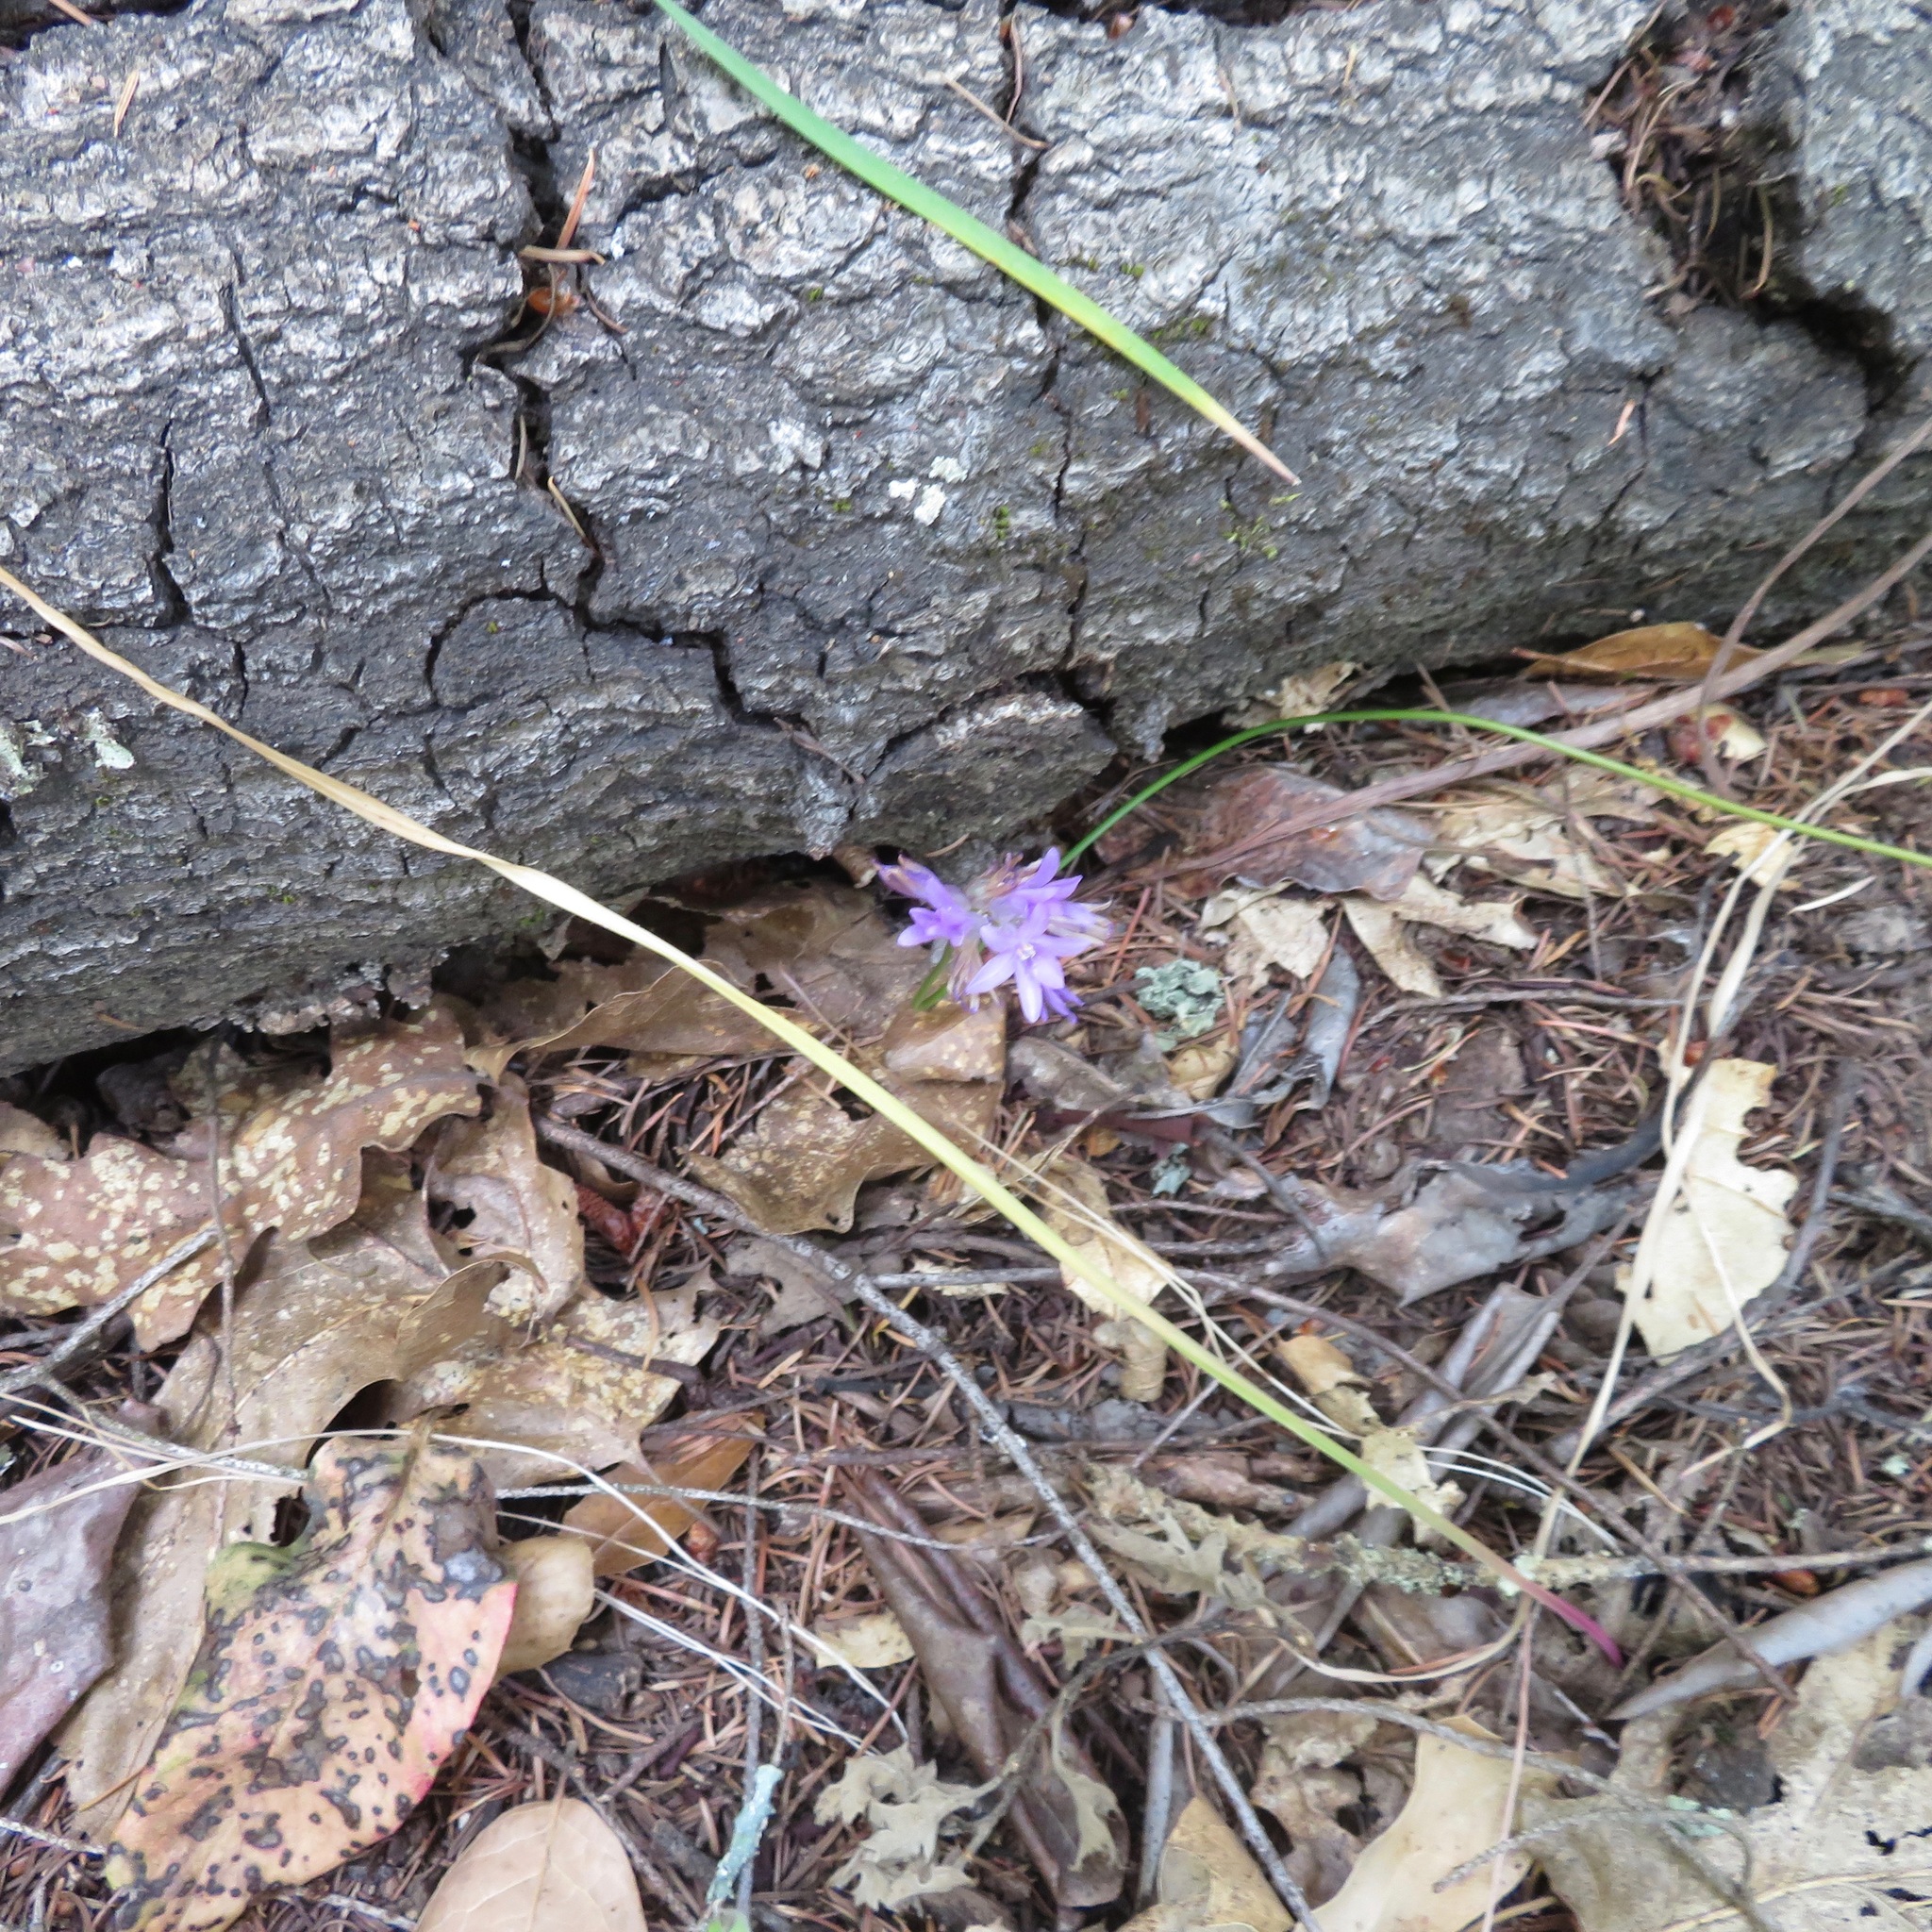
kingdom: Plantae
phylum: Tracheophyta
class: Liliopsida
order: Asparagales
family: Asparagaceae
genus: Dichelostemma
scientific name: Dichelostemma congestum
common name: Fork-tooth ookow
